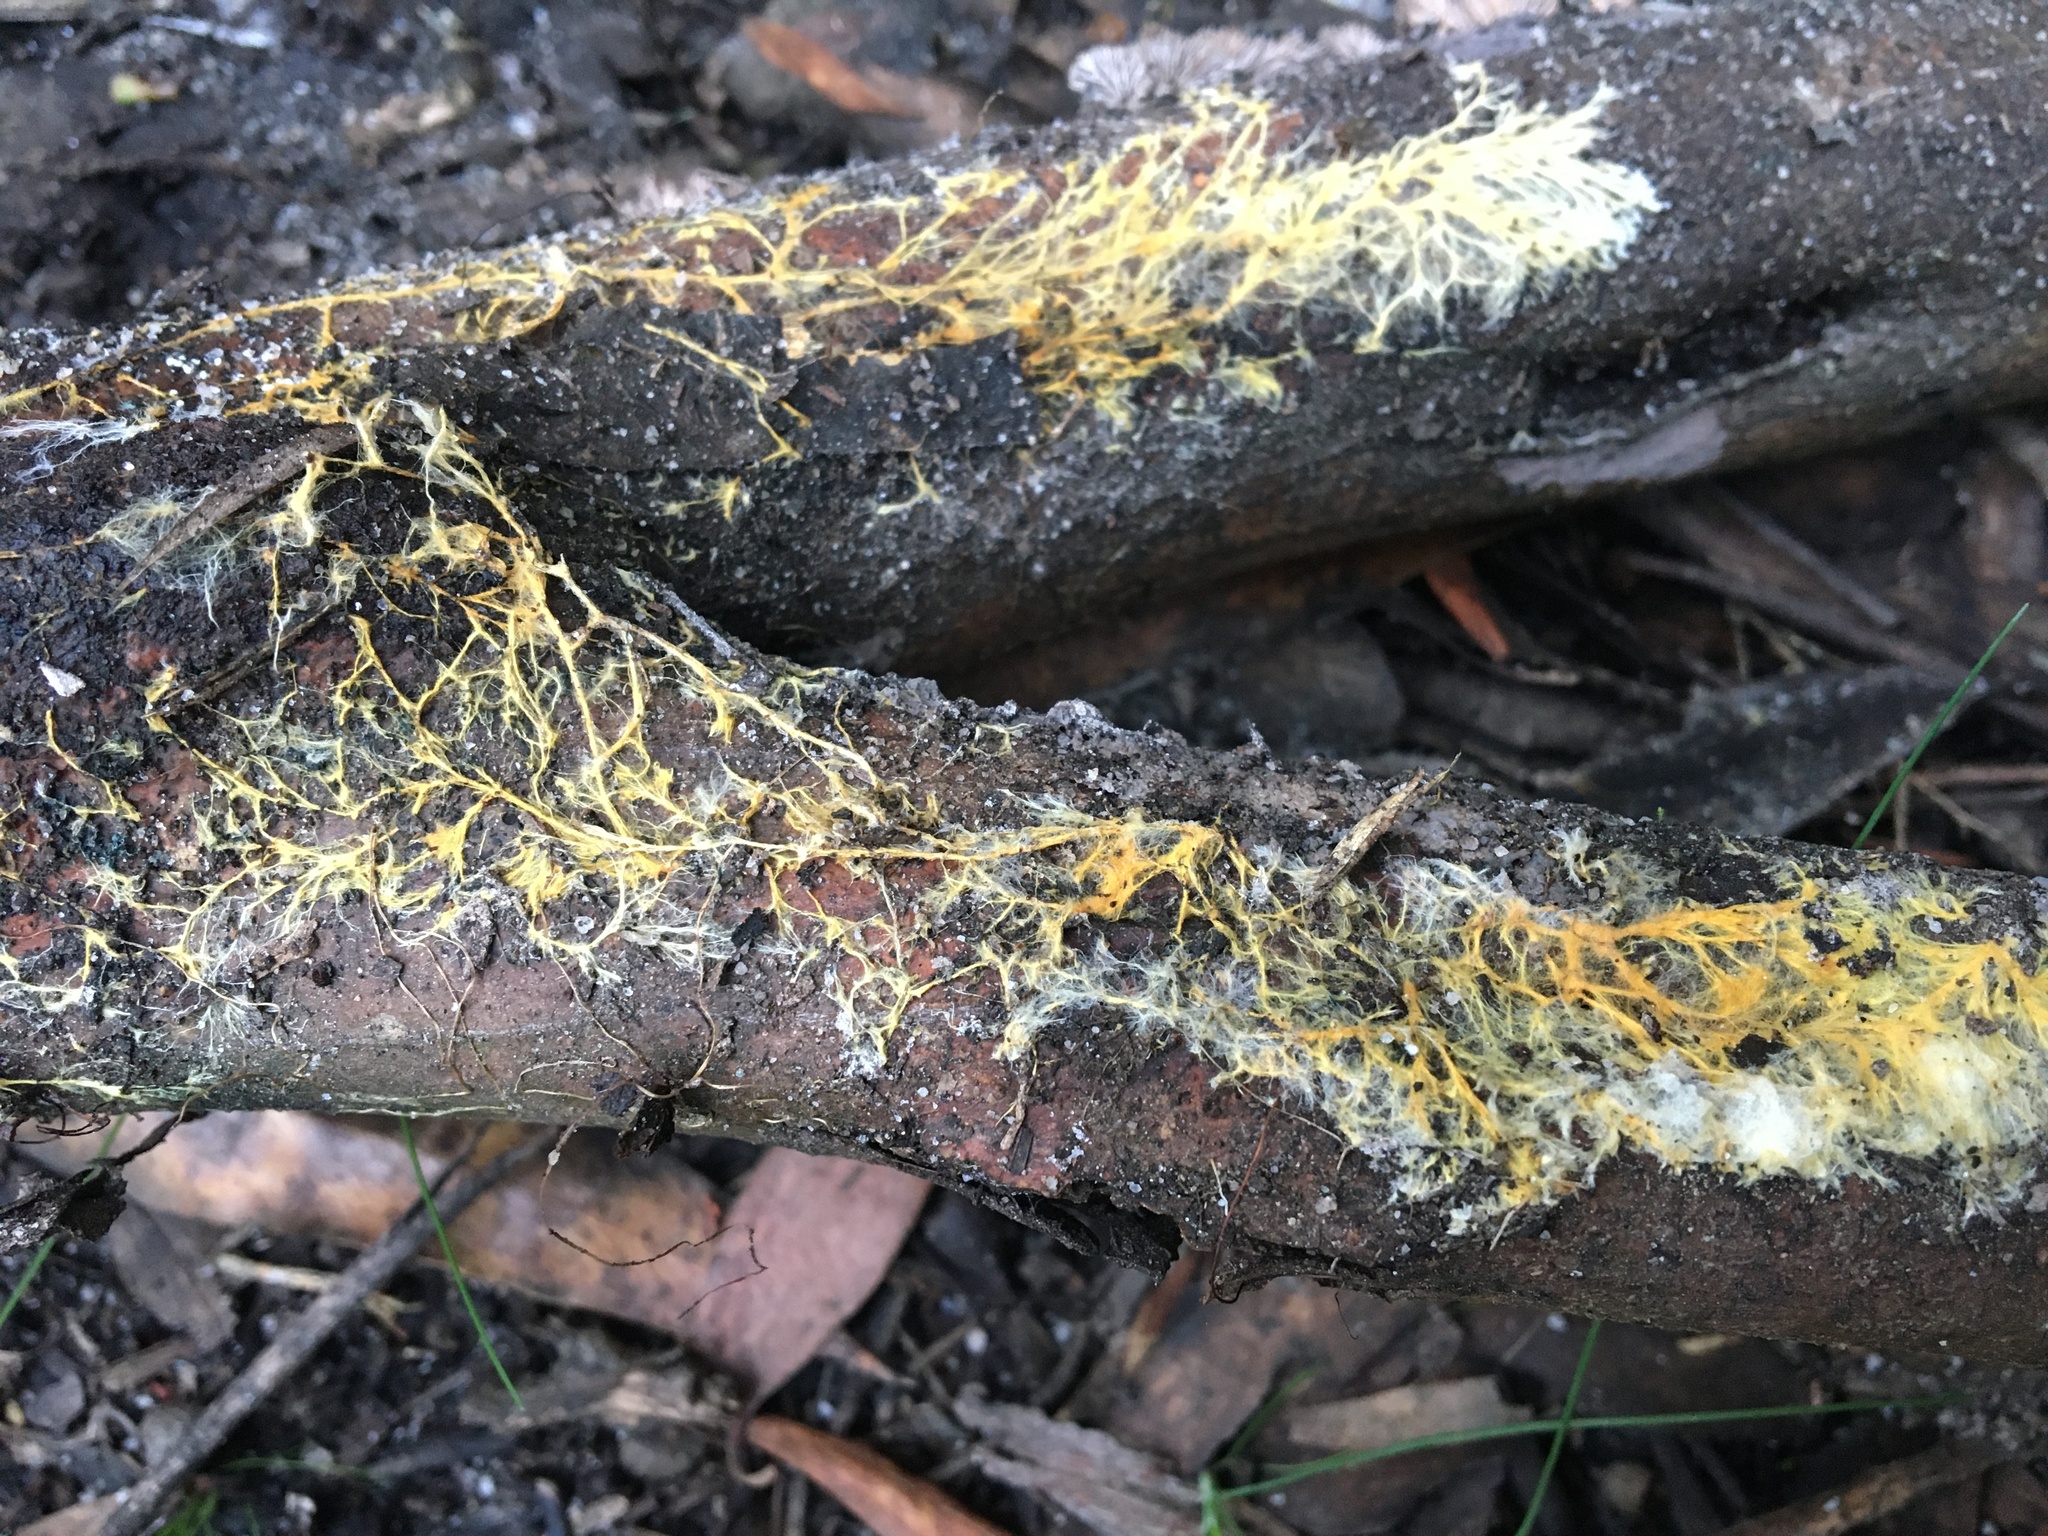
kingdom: Fungi
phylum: Basidiomycota
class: Agaricomycetes
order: Polyporales
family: Phanerochaetaceae
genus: Rhizochaete
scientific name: Rhizochaete filamentosa
